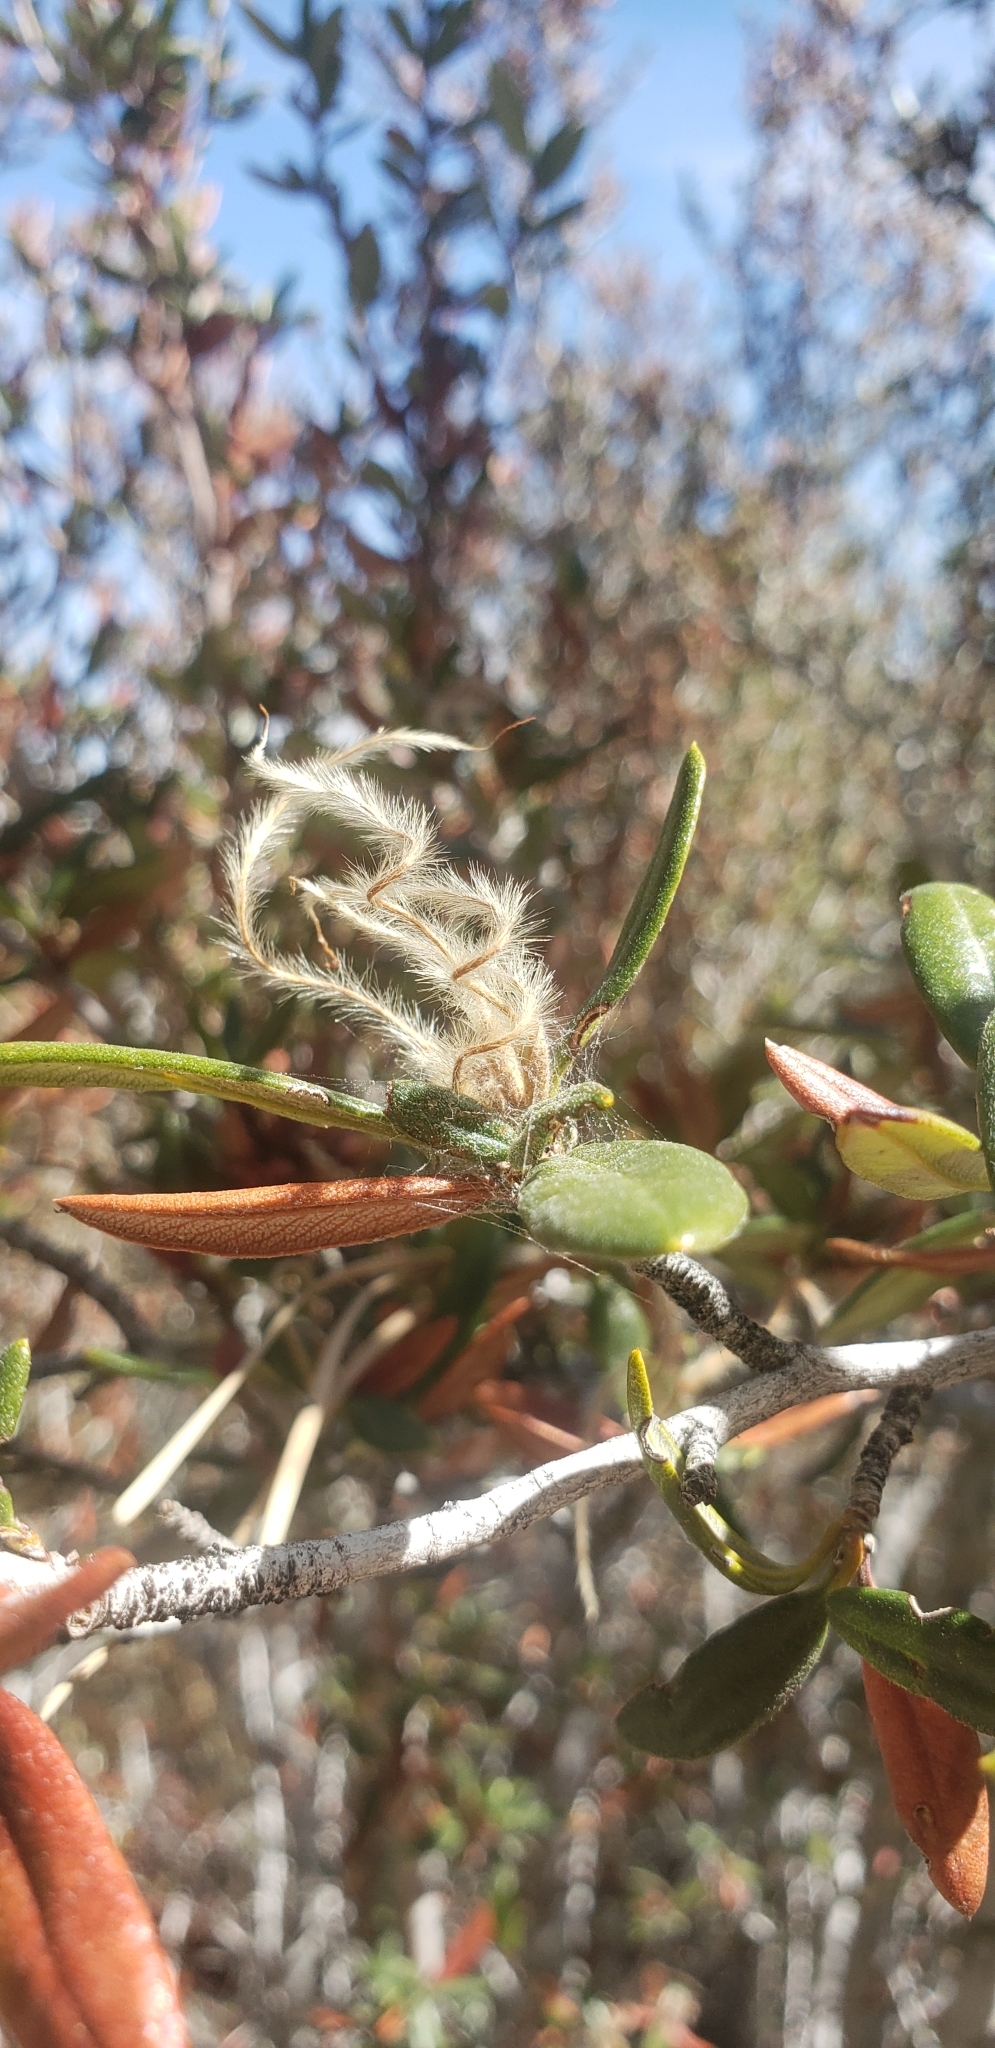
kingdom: Plantae
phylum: Tracheophyta
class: Magnoliopsida
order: Rosales
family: Rosaceae
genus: Cercocarpus
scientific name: Cercocarpus ledifolius
